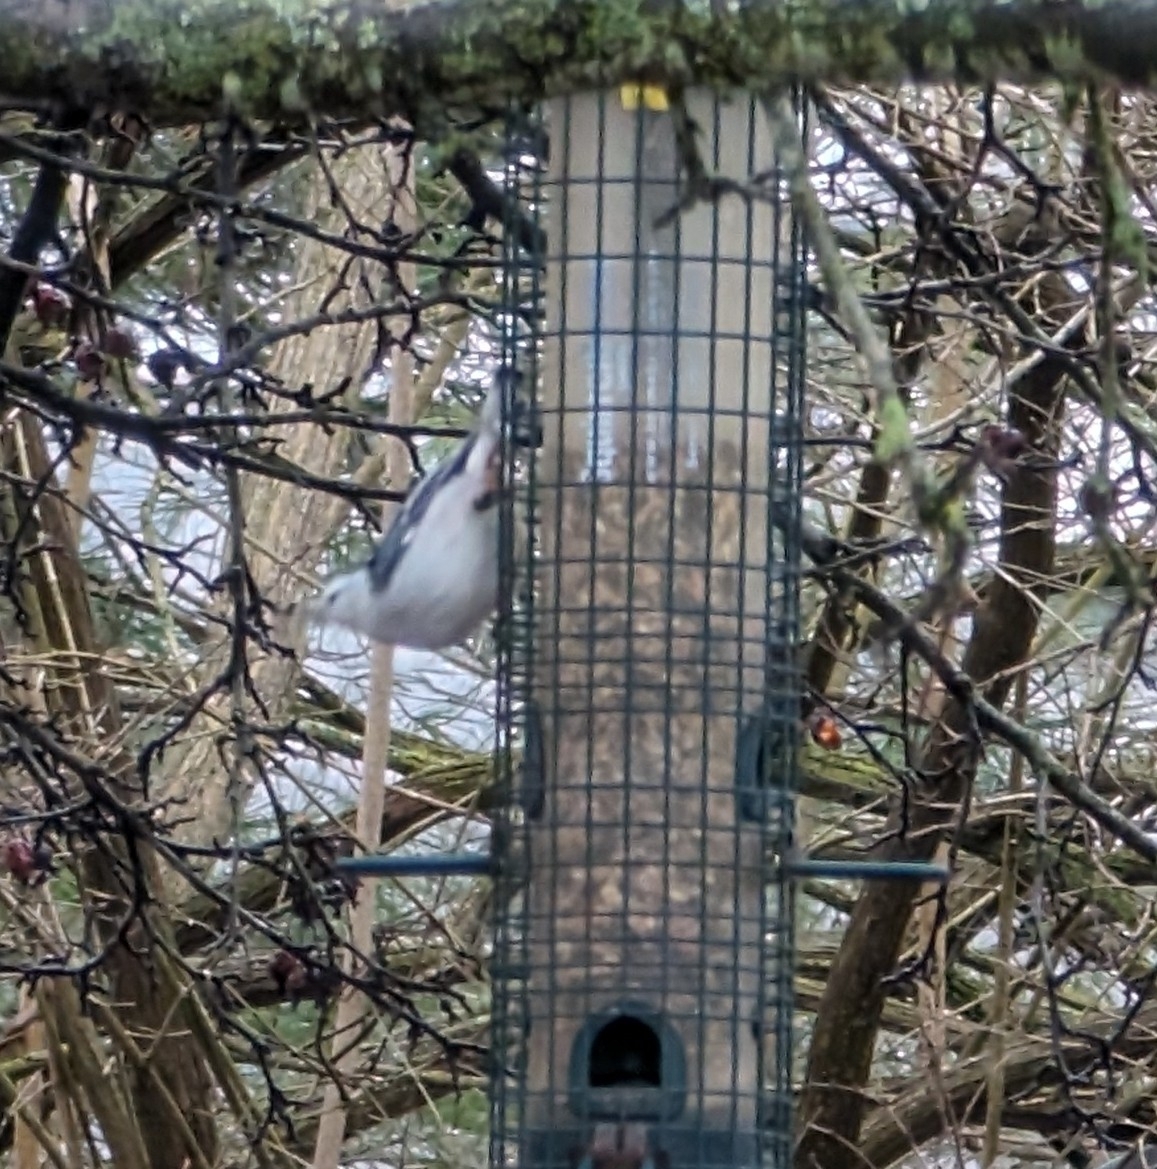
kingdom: Animalia
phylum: Chordata
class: Aves
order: Passeriformes
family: Sittidae
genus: Sitta
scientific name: Sitta carolinensis
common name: White-breasted nuthatch
